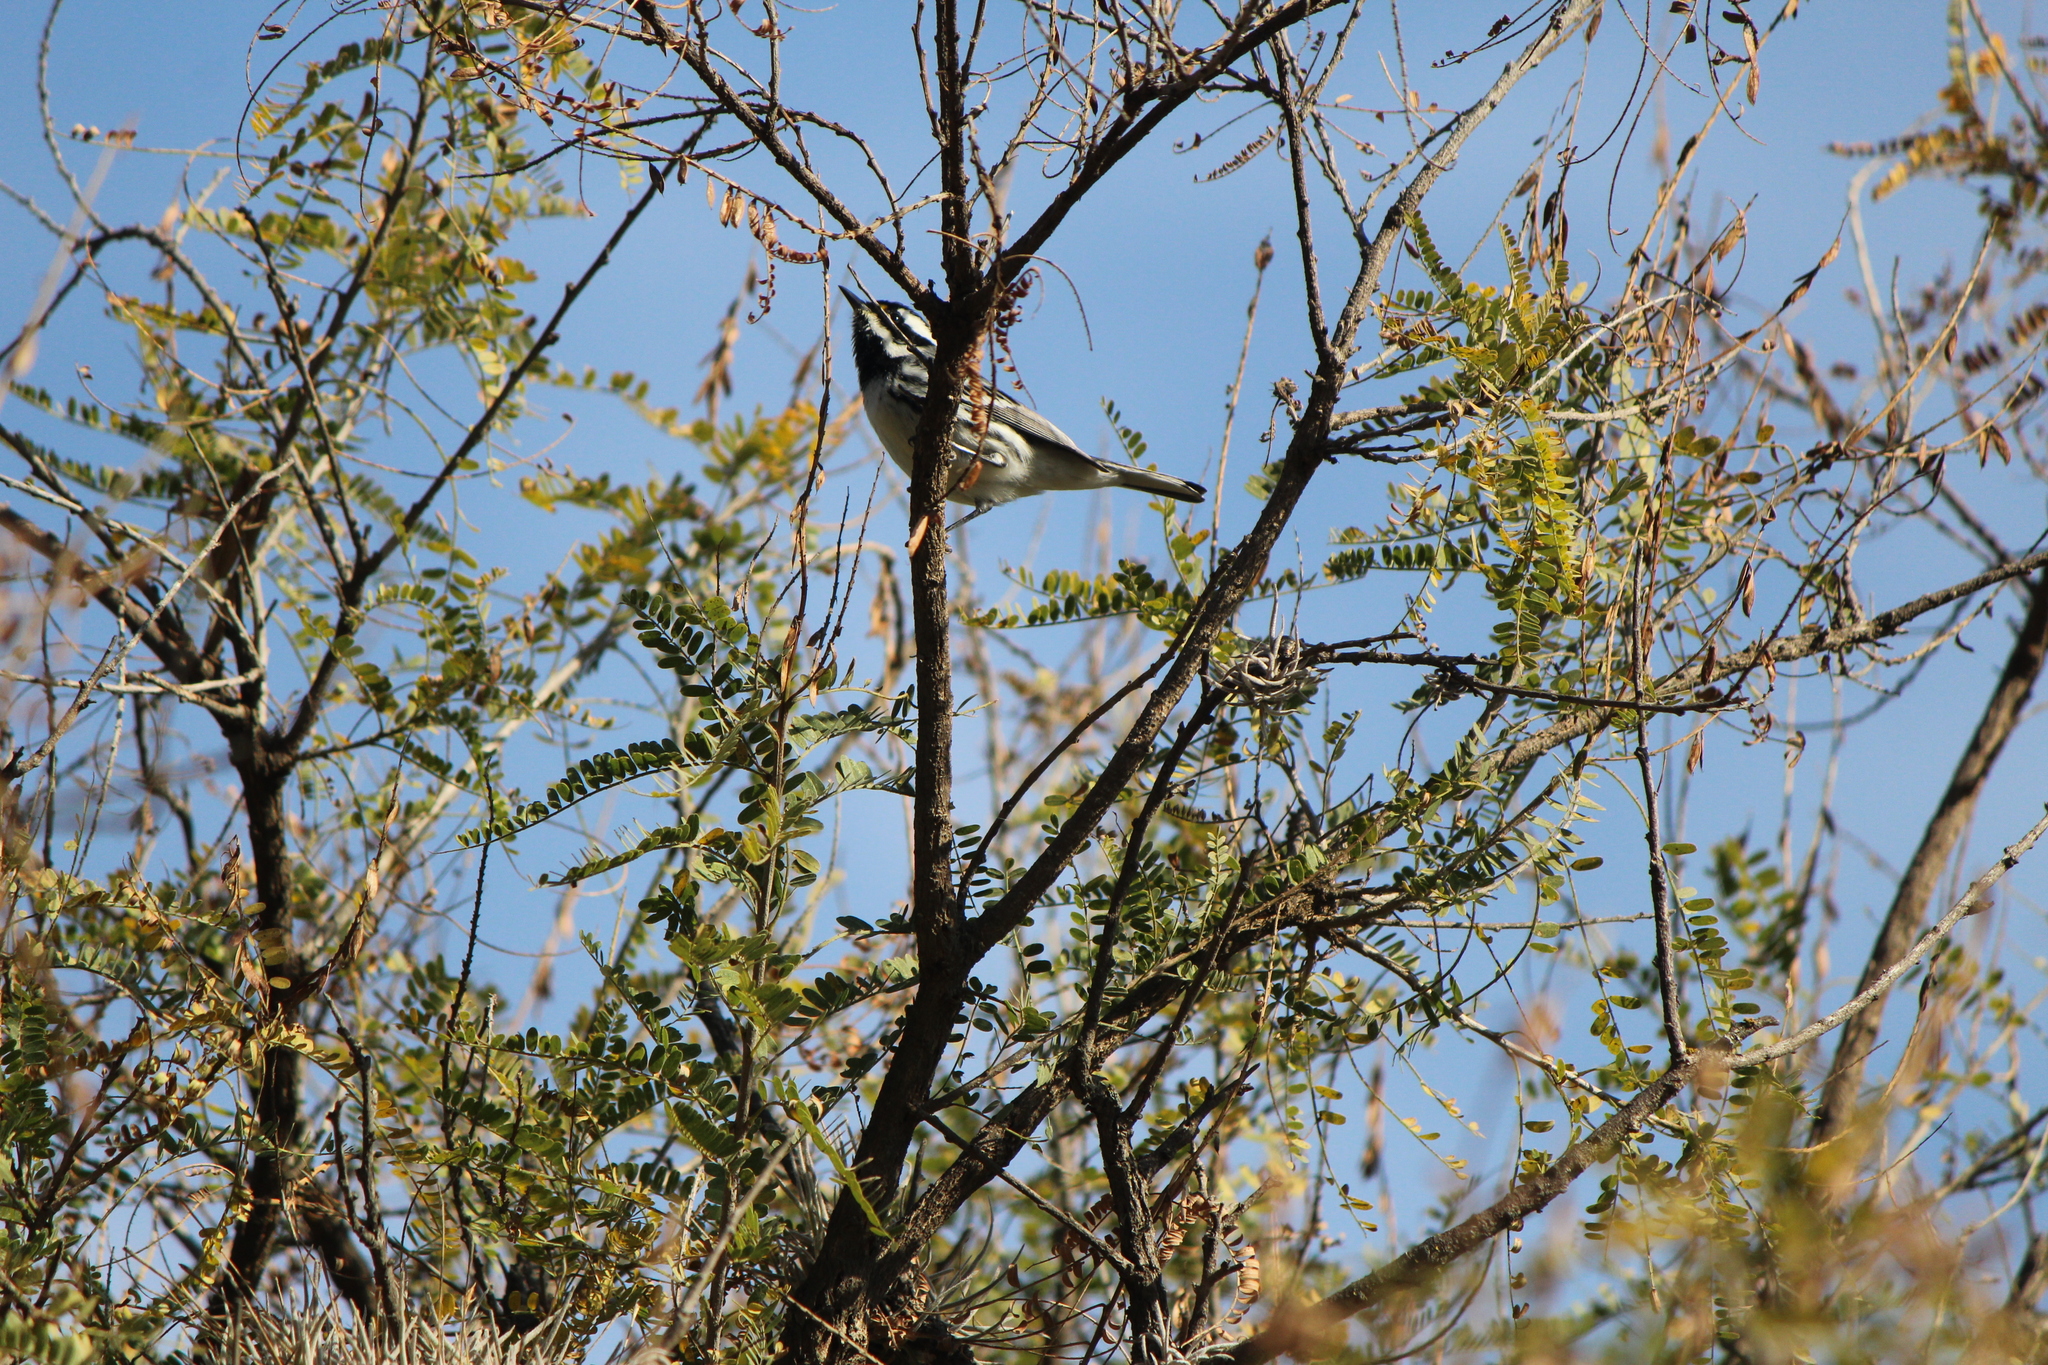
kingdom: Animalia
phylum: Chordata
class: Aves
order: Passeriformes
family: Parulidae
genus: Setophaga
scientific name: Setophaga nigrescens
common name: Black-throated gray warbler
